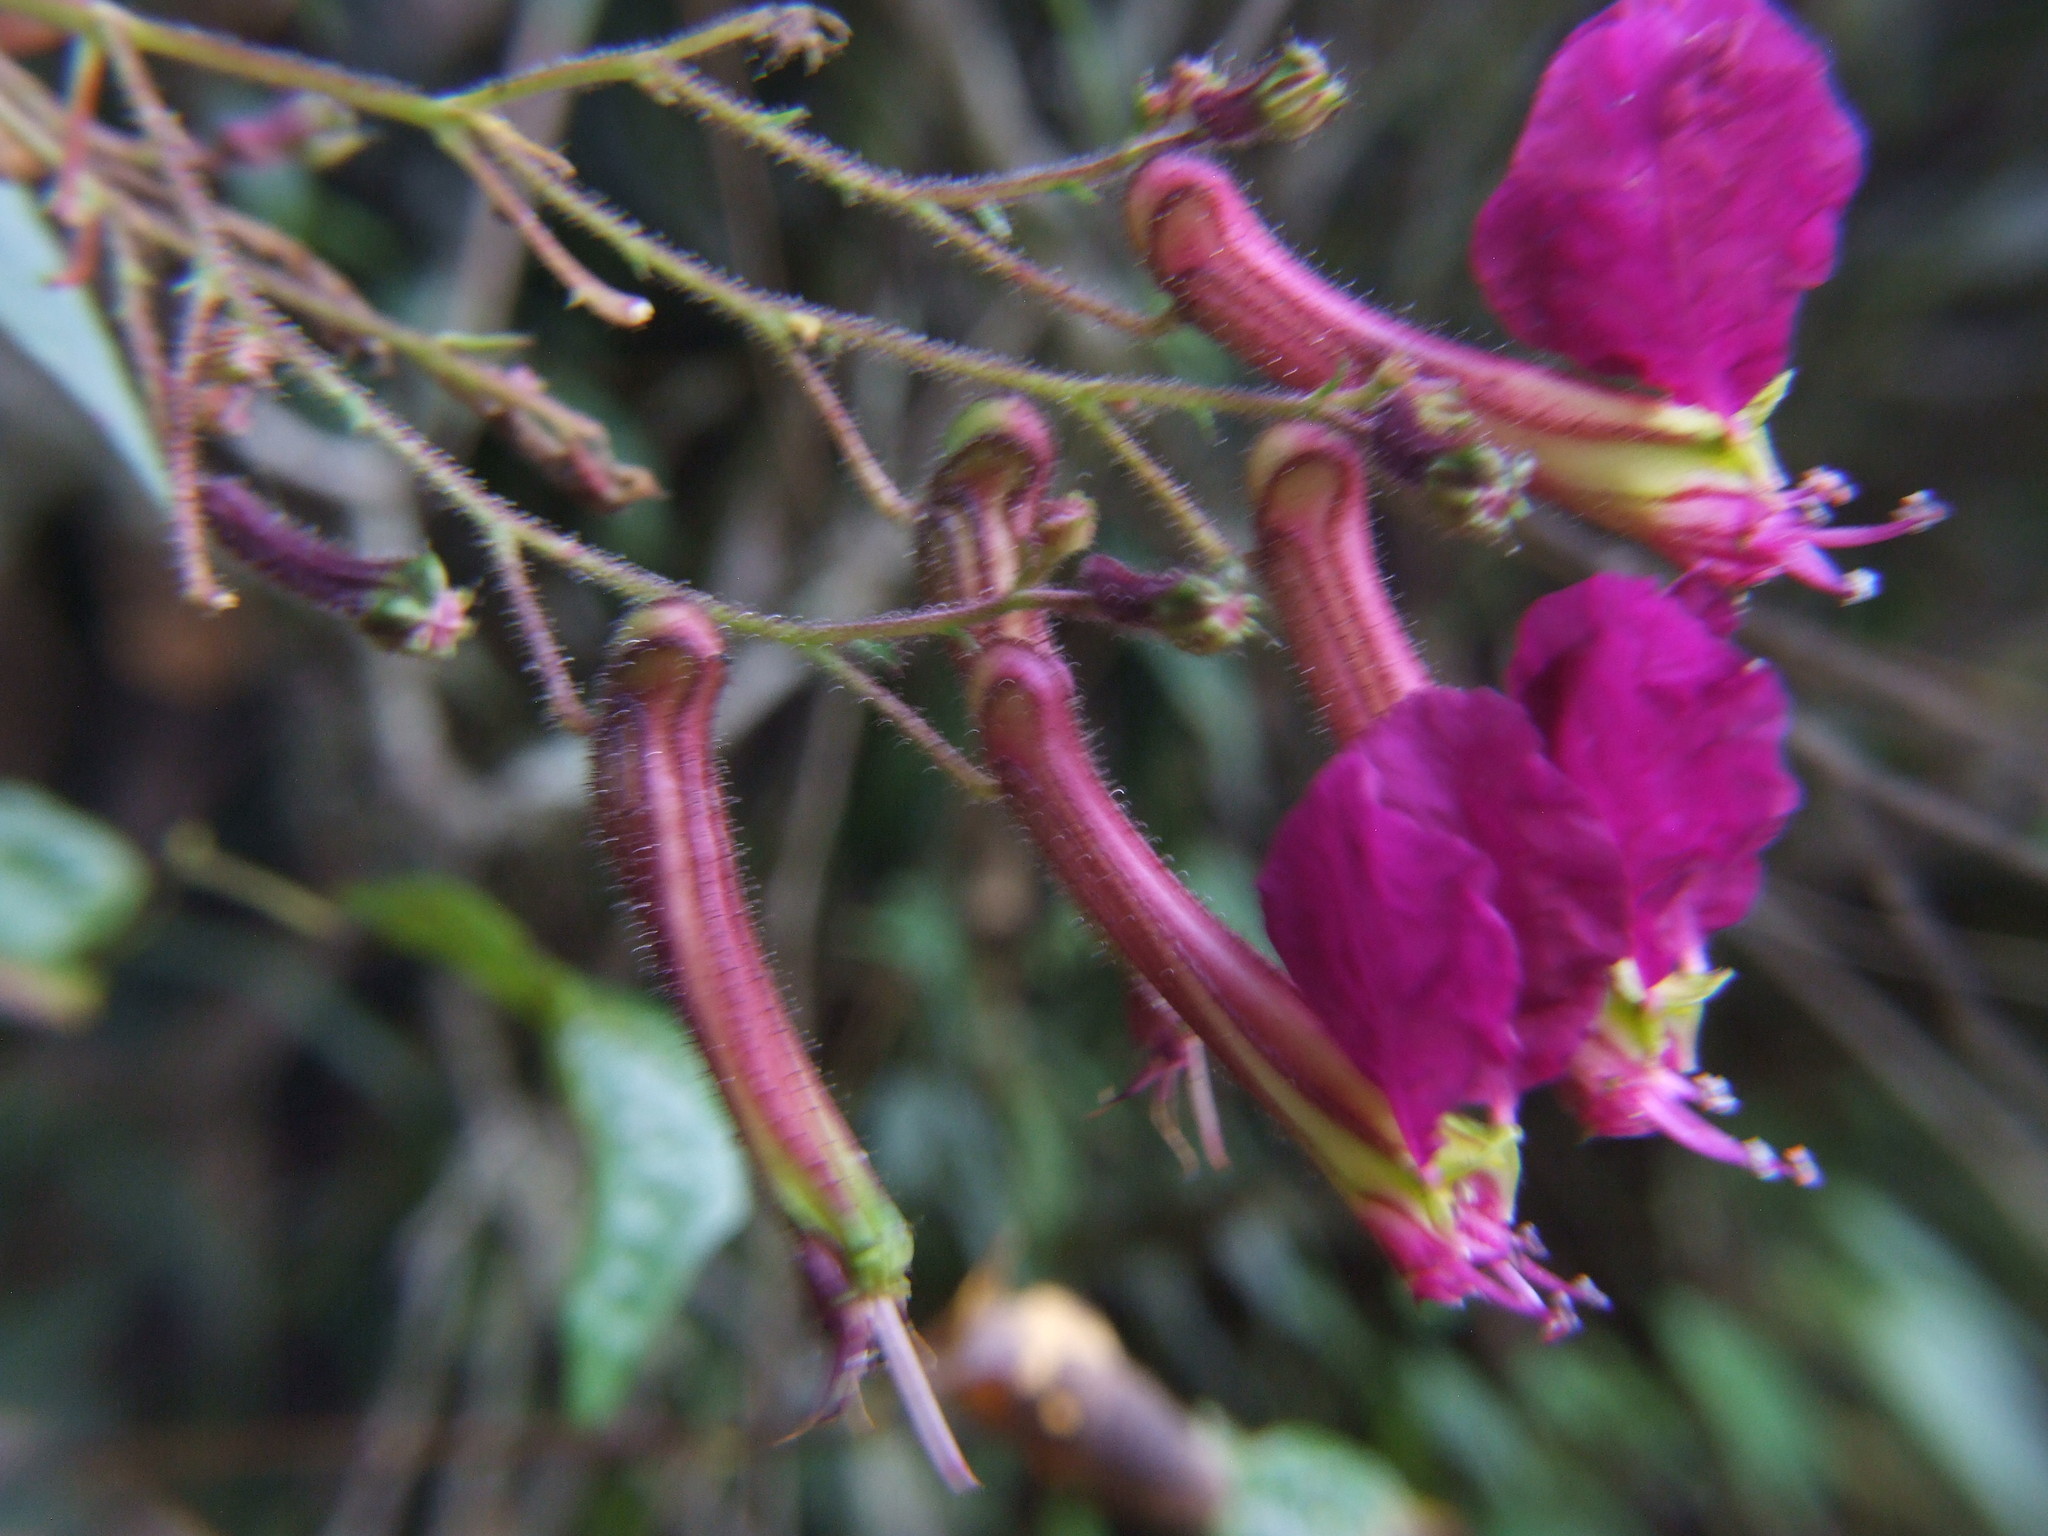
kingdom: Plantae
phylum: Tracheophyta
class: Magnoliopsida
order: Myrtales
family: Lythraceae
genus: Cuphea
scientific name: Cuphea cordata
